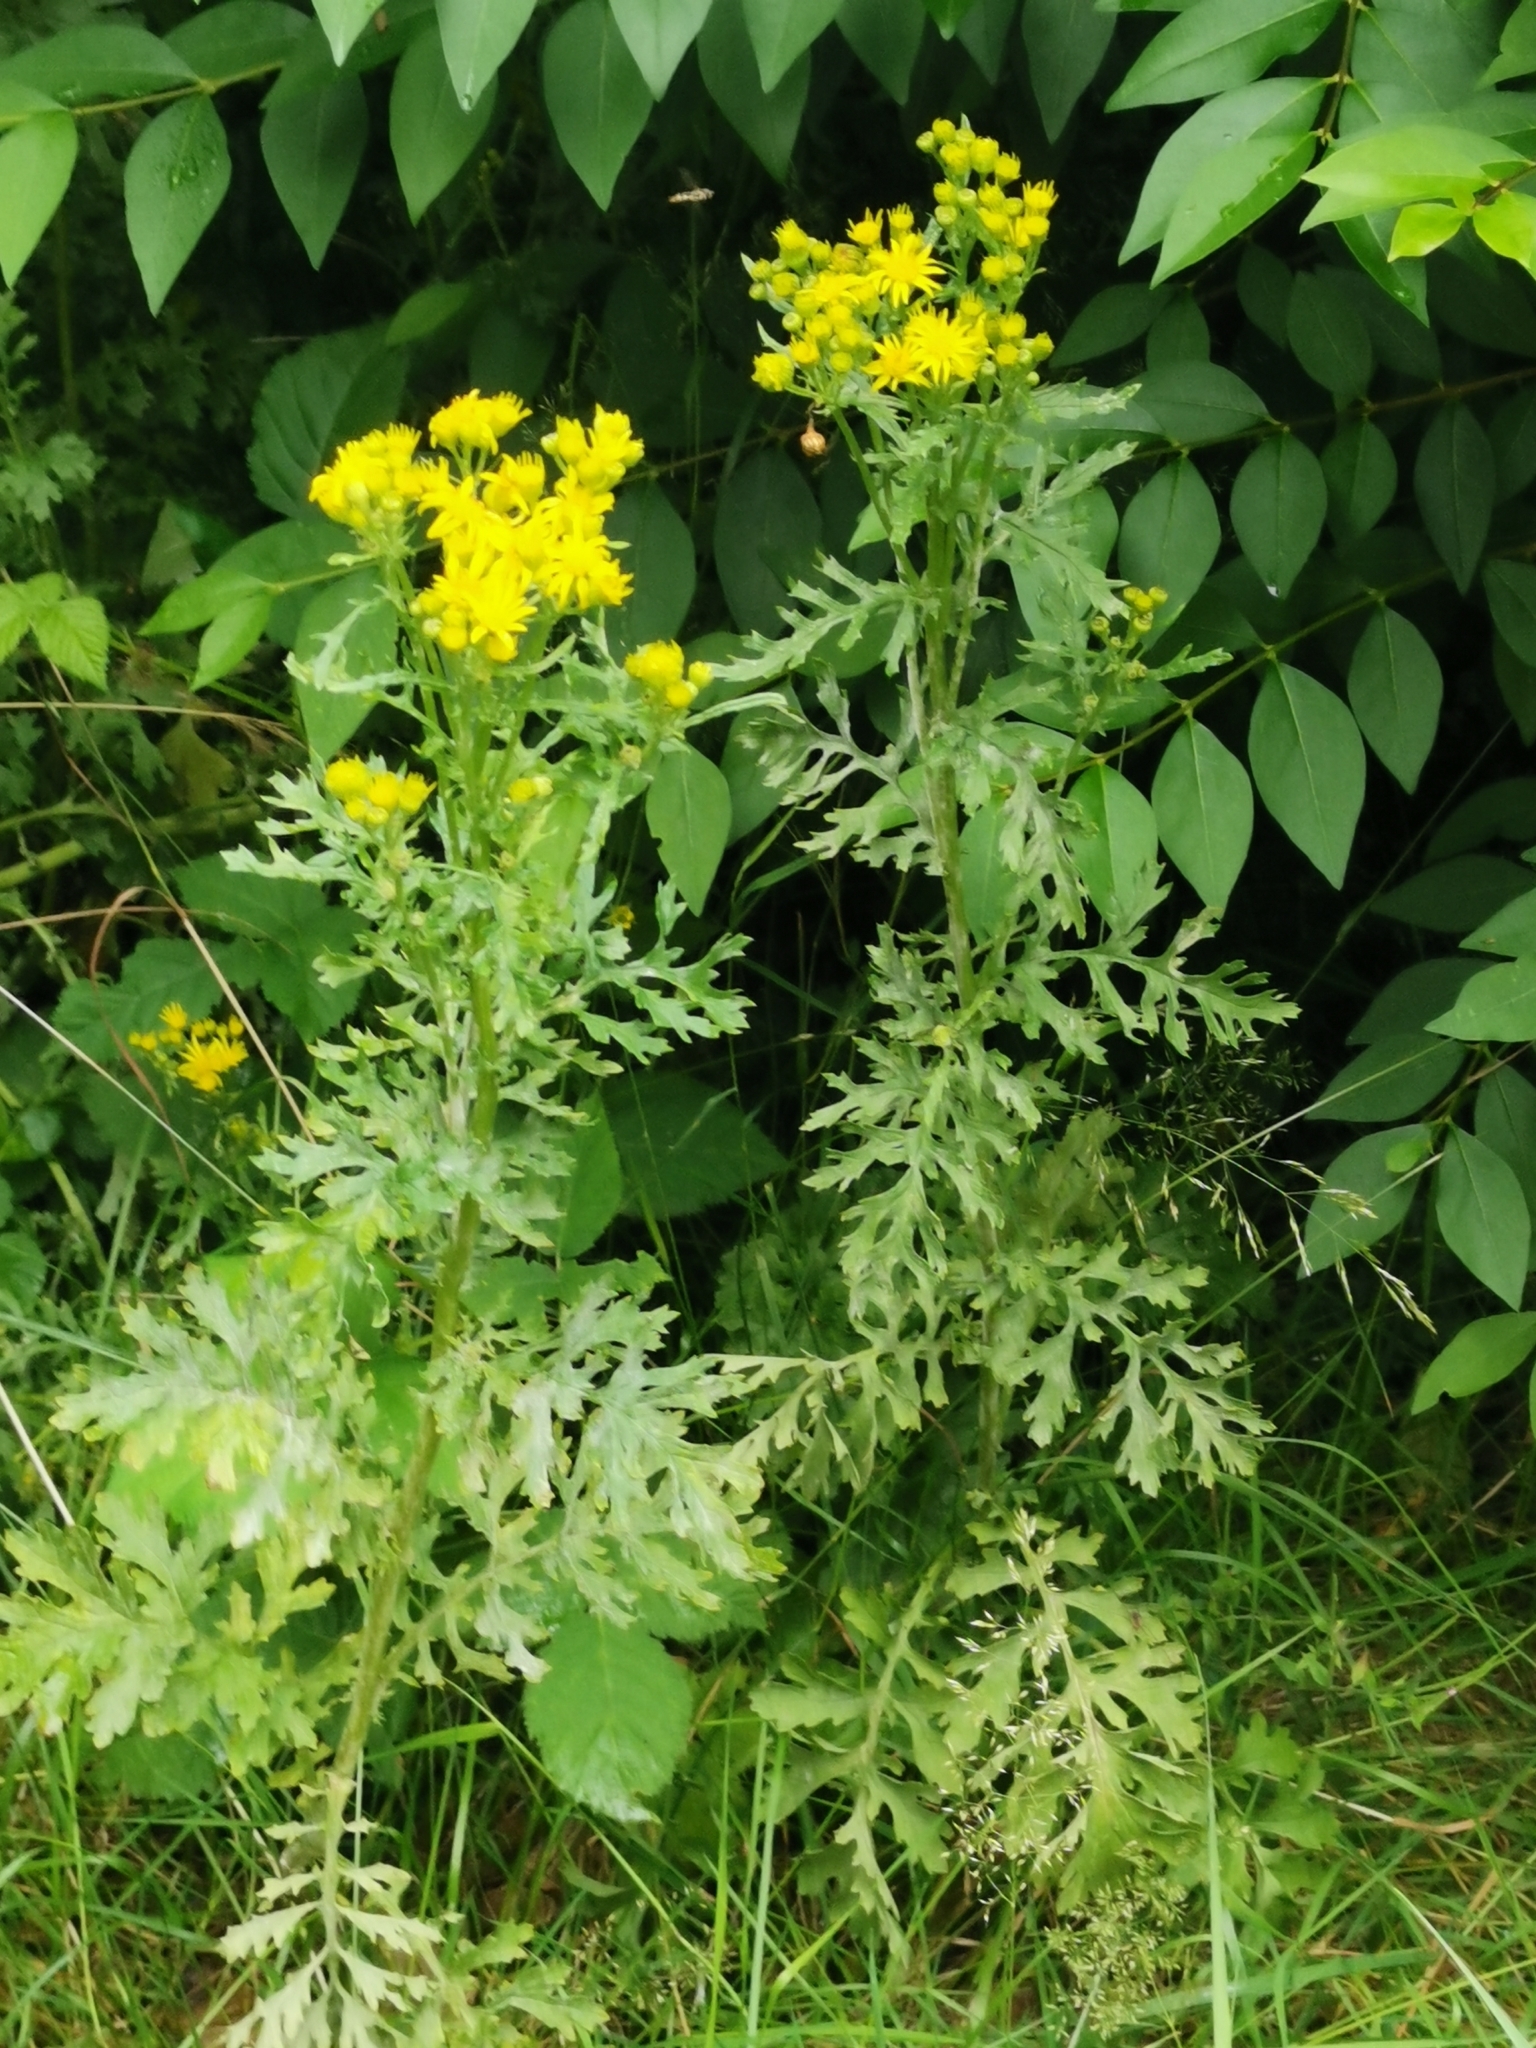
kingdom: Plantae
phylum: Tracheophyta
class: Magnoliopsida
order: Asterales
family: Asteraceae
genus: Jacobaea
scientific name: Jacobaea vulgaris
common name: Stinking willie
